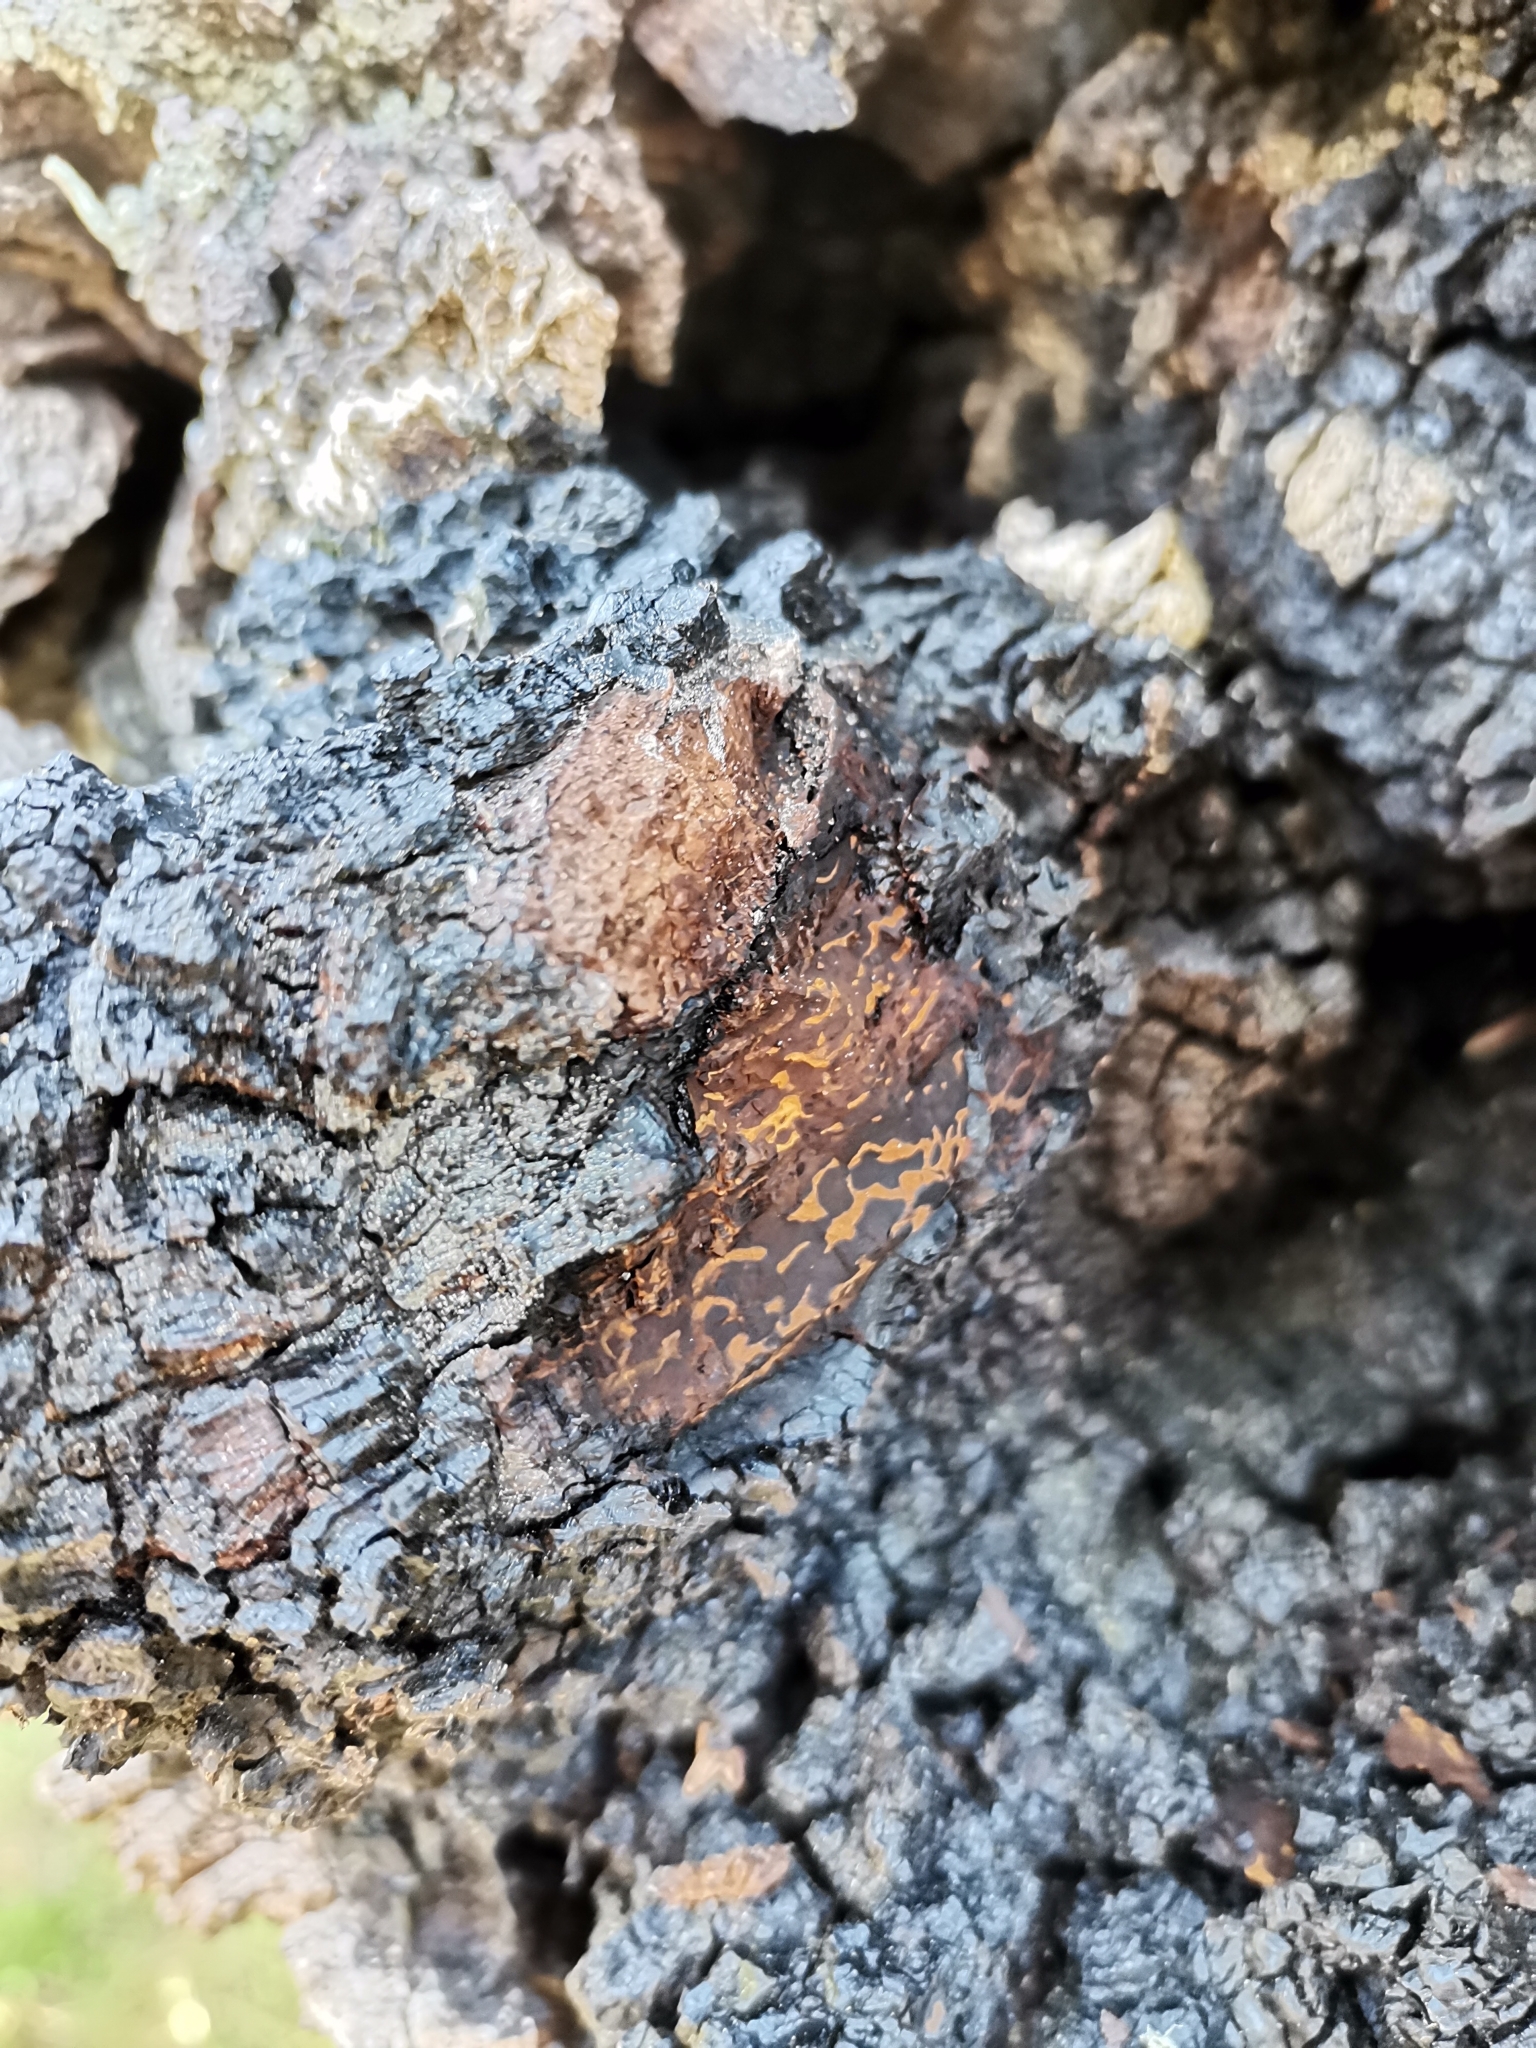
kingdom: Fungi
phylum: Basidiomycota
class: Agaricomycetes
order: Hymenochaetales
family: Hymenochaetaceae
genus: Inonotus
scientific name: Inonotus obliquus
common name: Chaga
